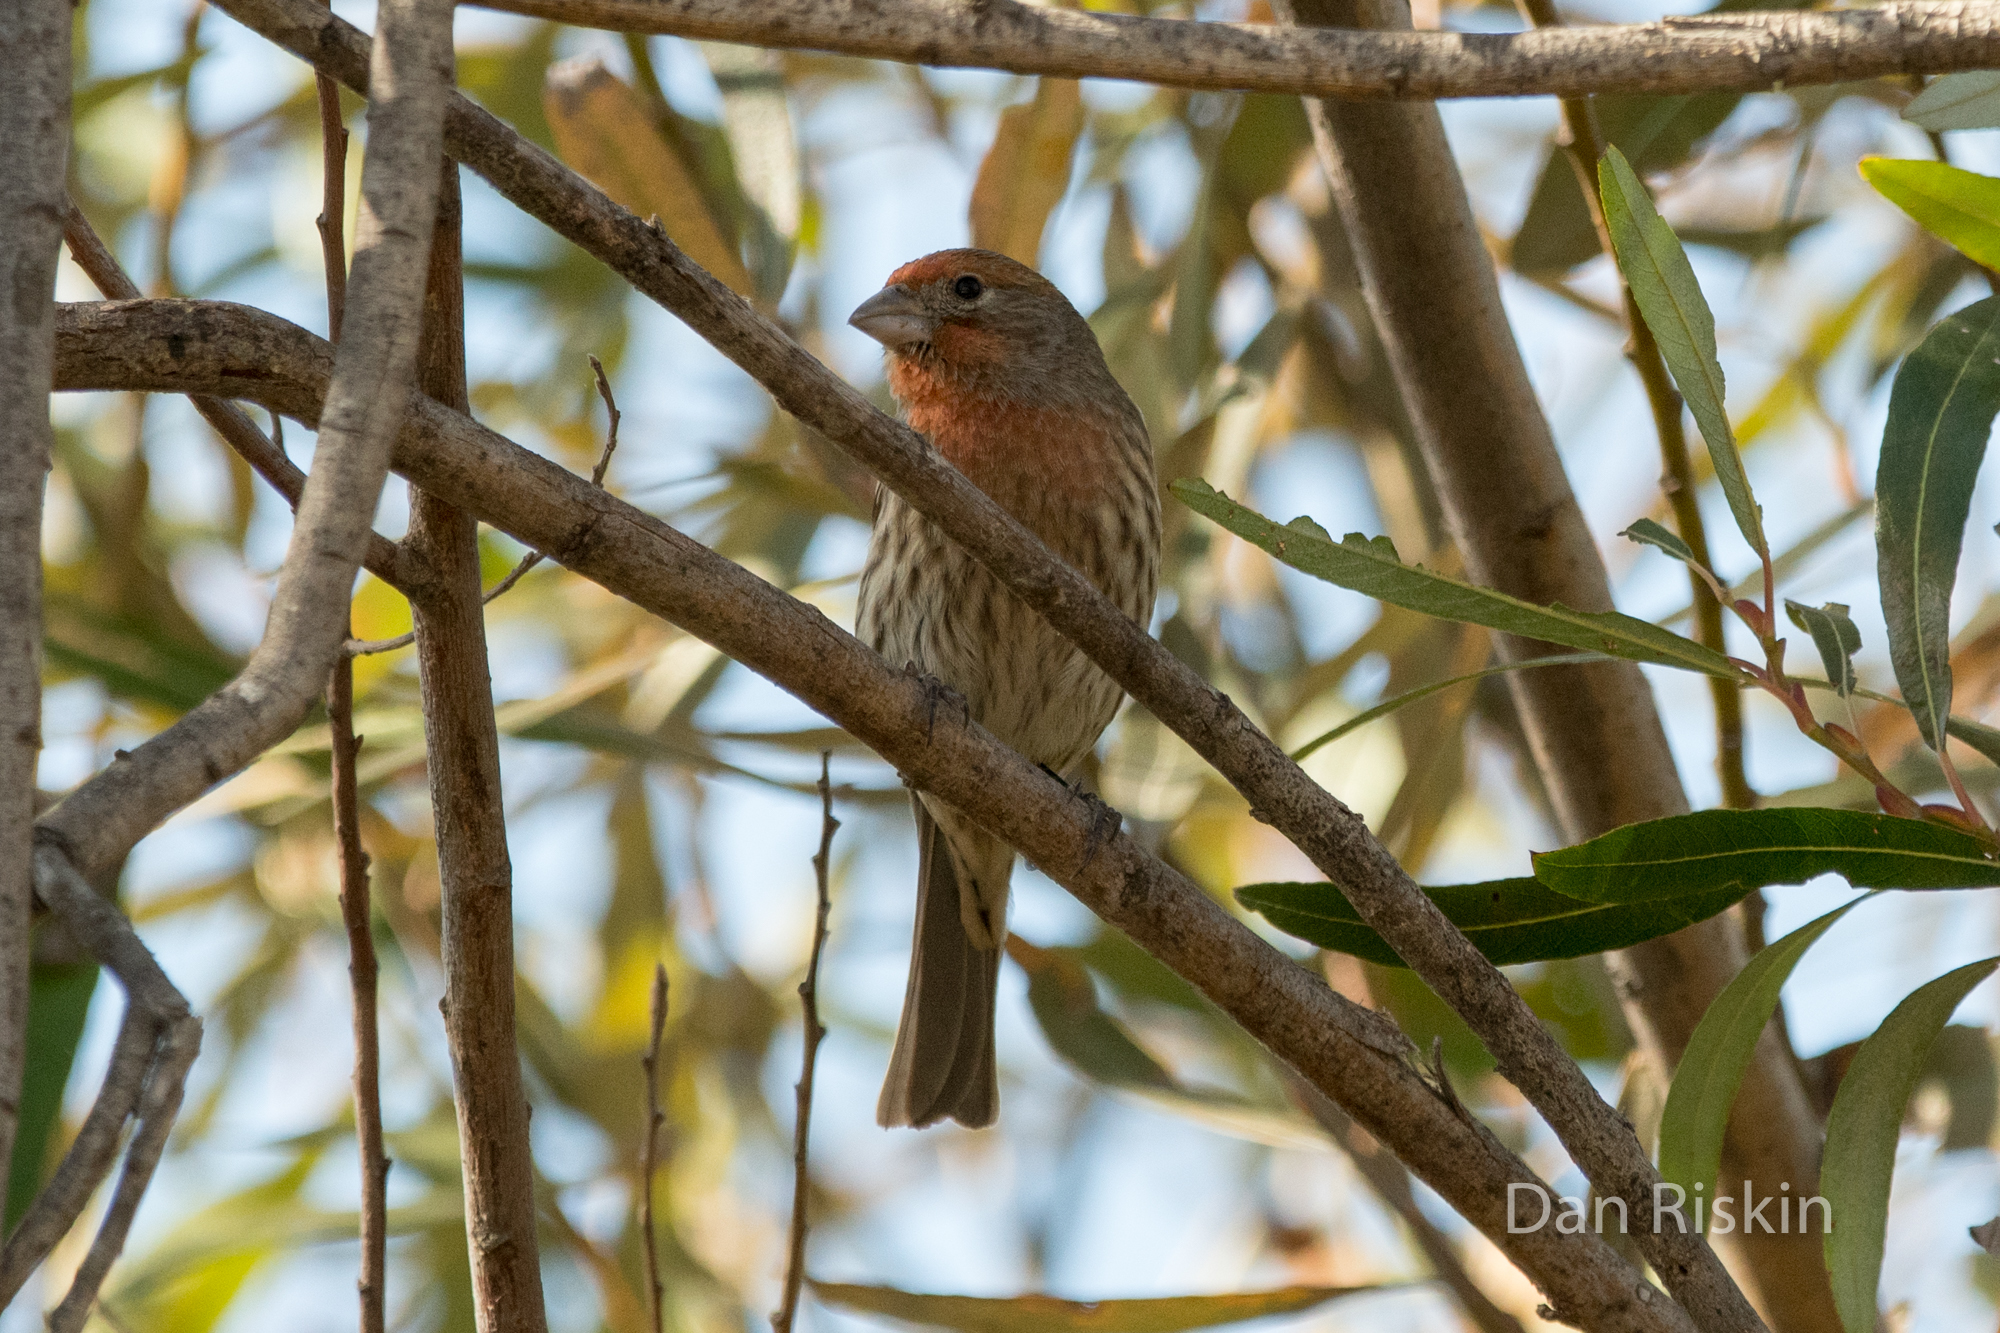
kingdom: Animalia
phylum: Chordata
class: Aves
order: Passeriformes
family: Fringillidae
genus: Haemorhous
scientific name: Haemorhous mexicanus
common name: House finch
